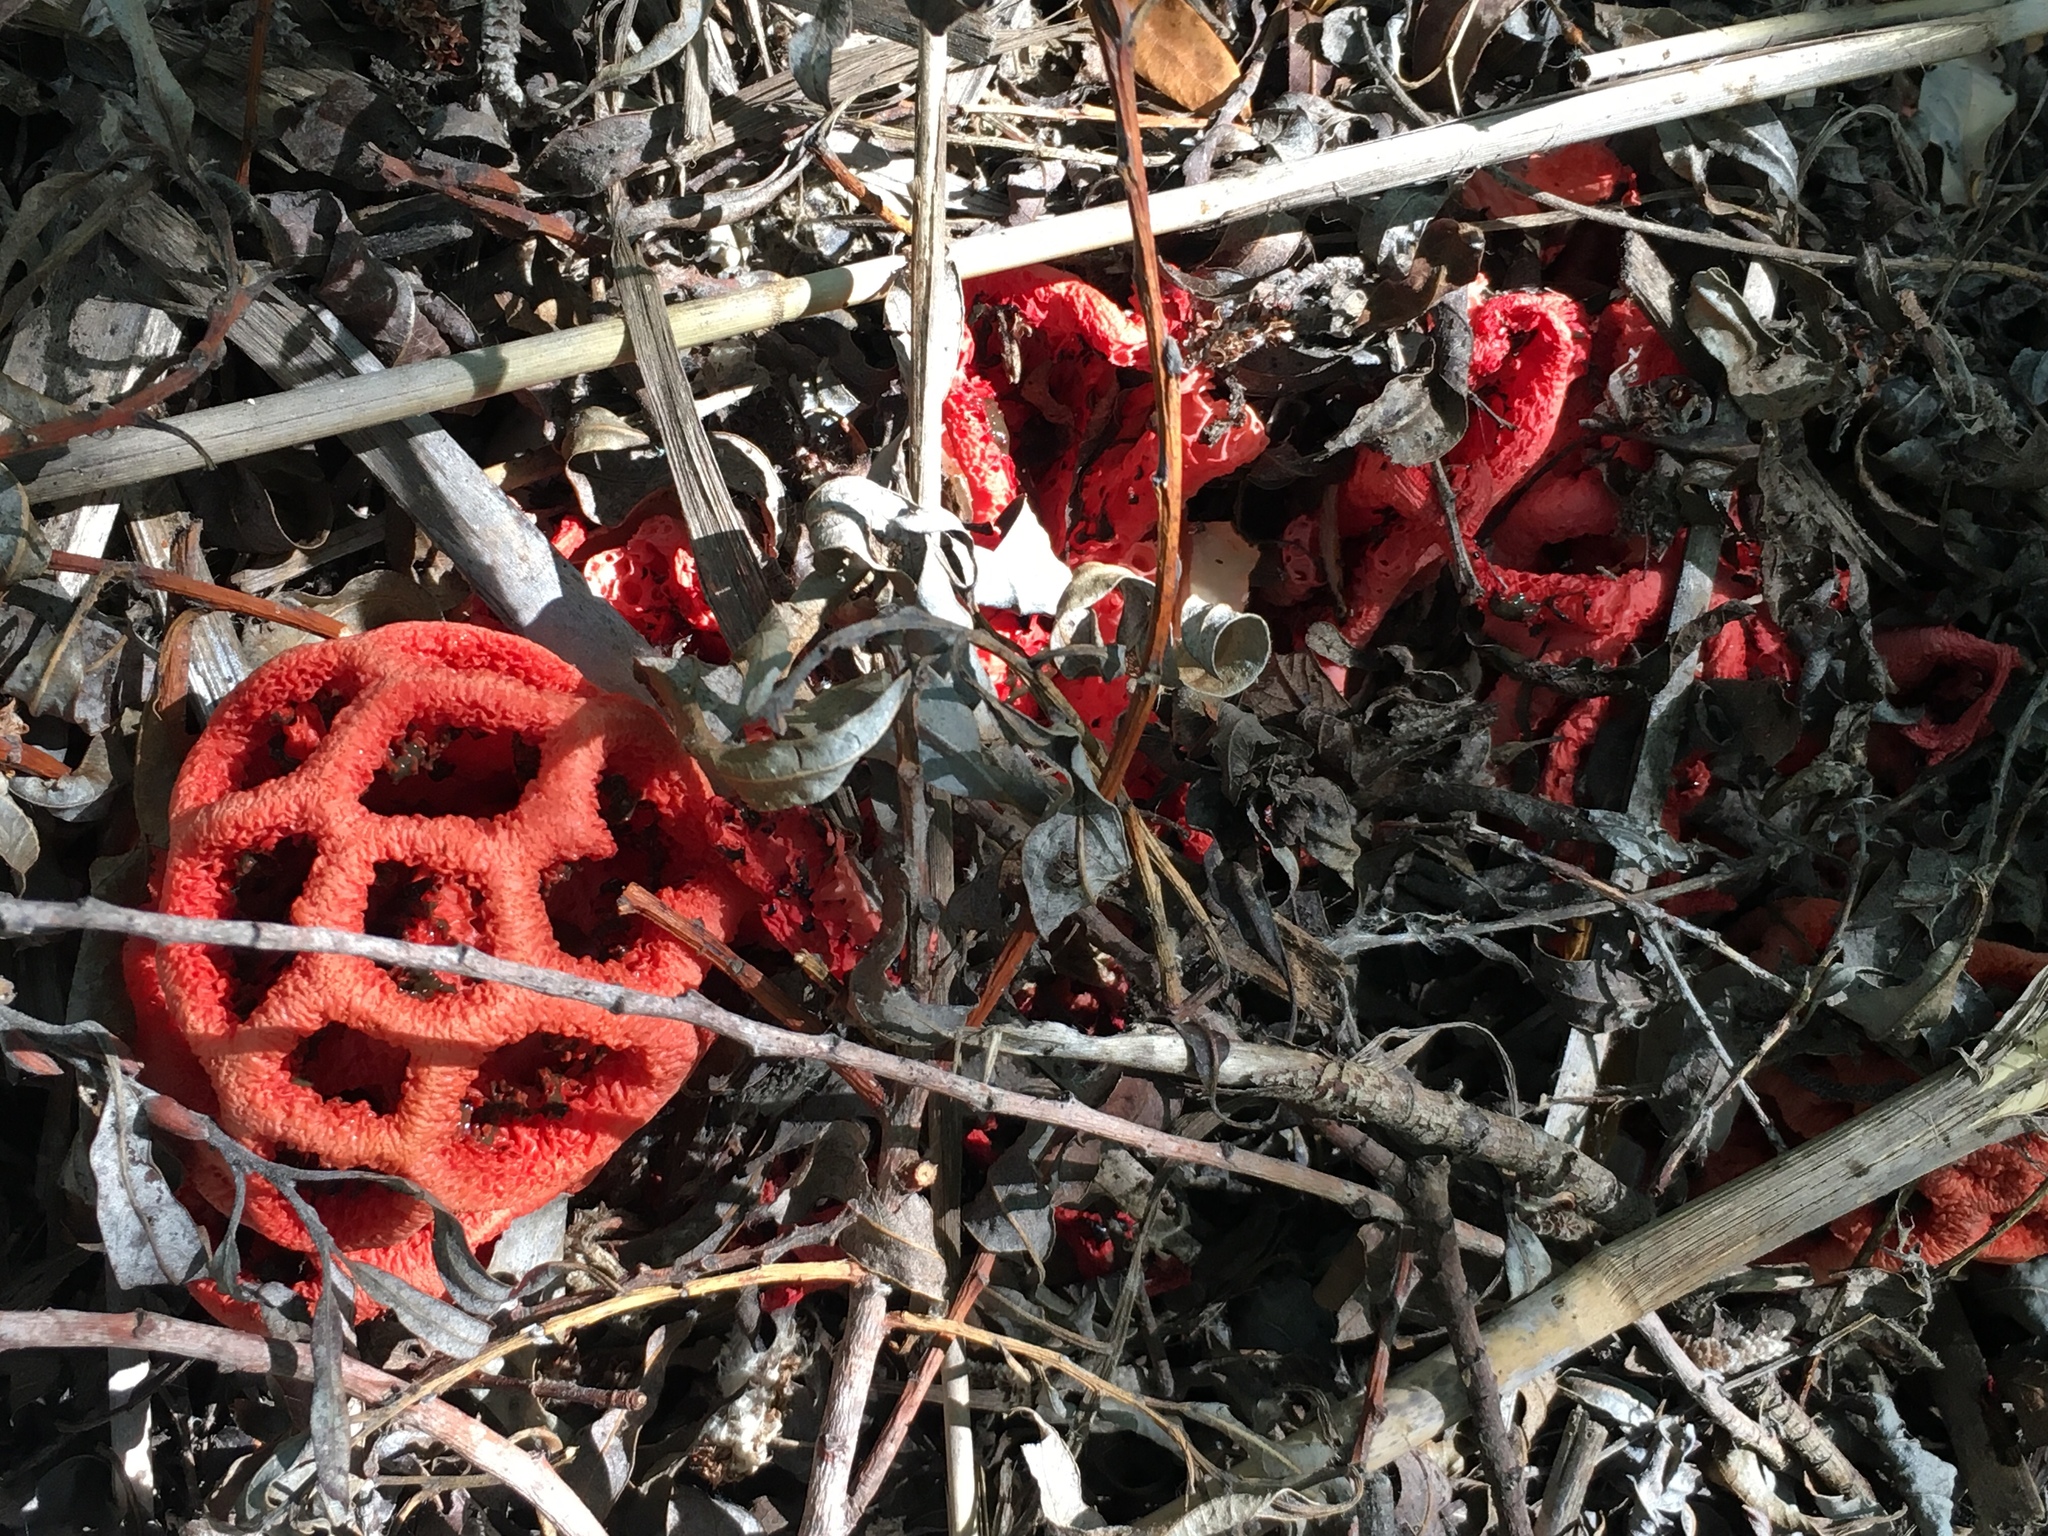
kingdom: Fungi
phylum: Basidiomycota
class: Agaricomycetes
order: Phallales
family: Phallaceae
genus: Clathrus
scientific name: Clathrus ruber
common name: Red cage
